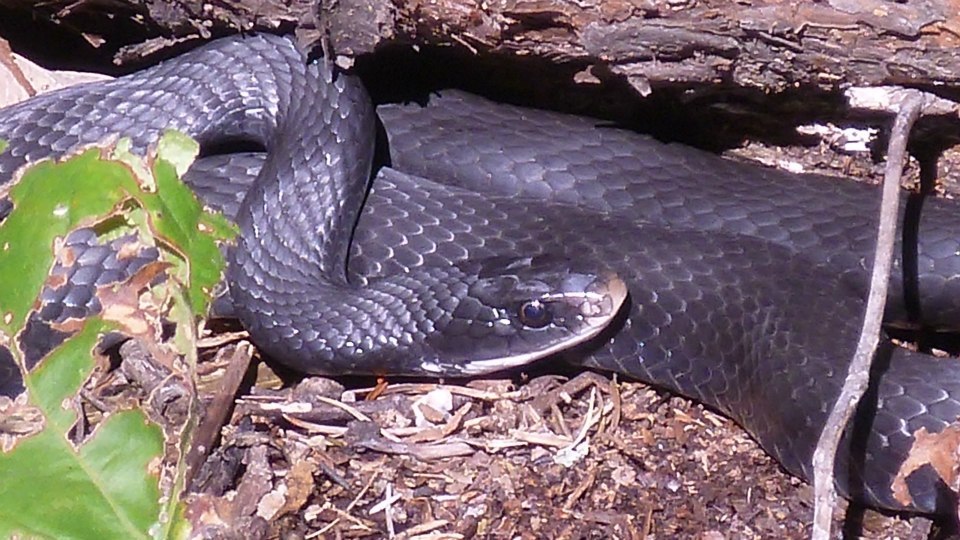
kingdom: Animalia
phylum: Chordata
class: Squamata
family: Colubridae
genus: Coluber
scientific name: Coluber constrictor
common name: Eastern racer
